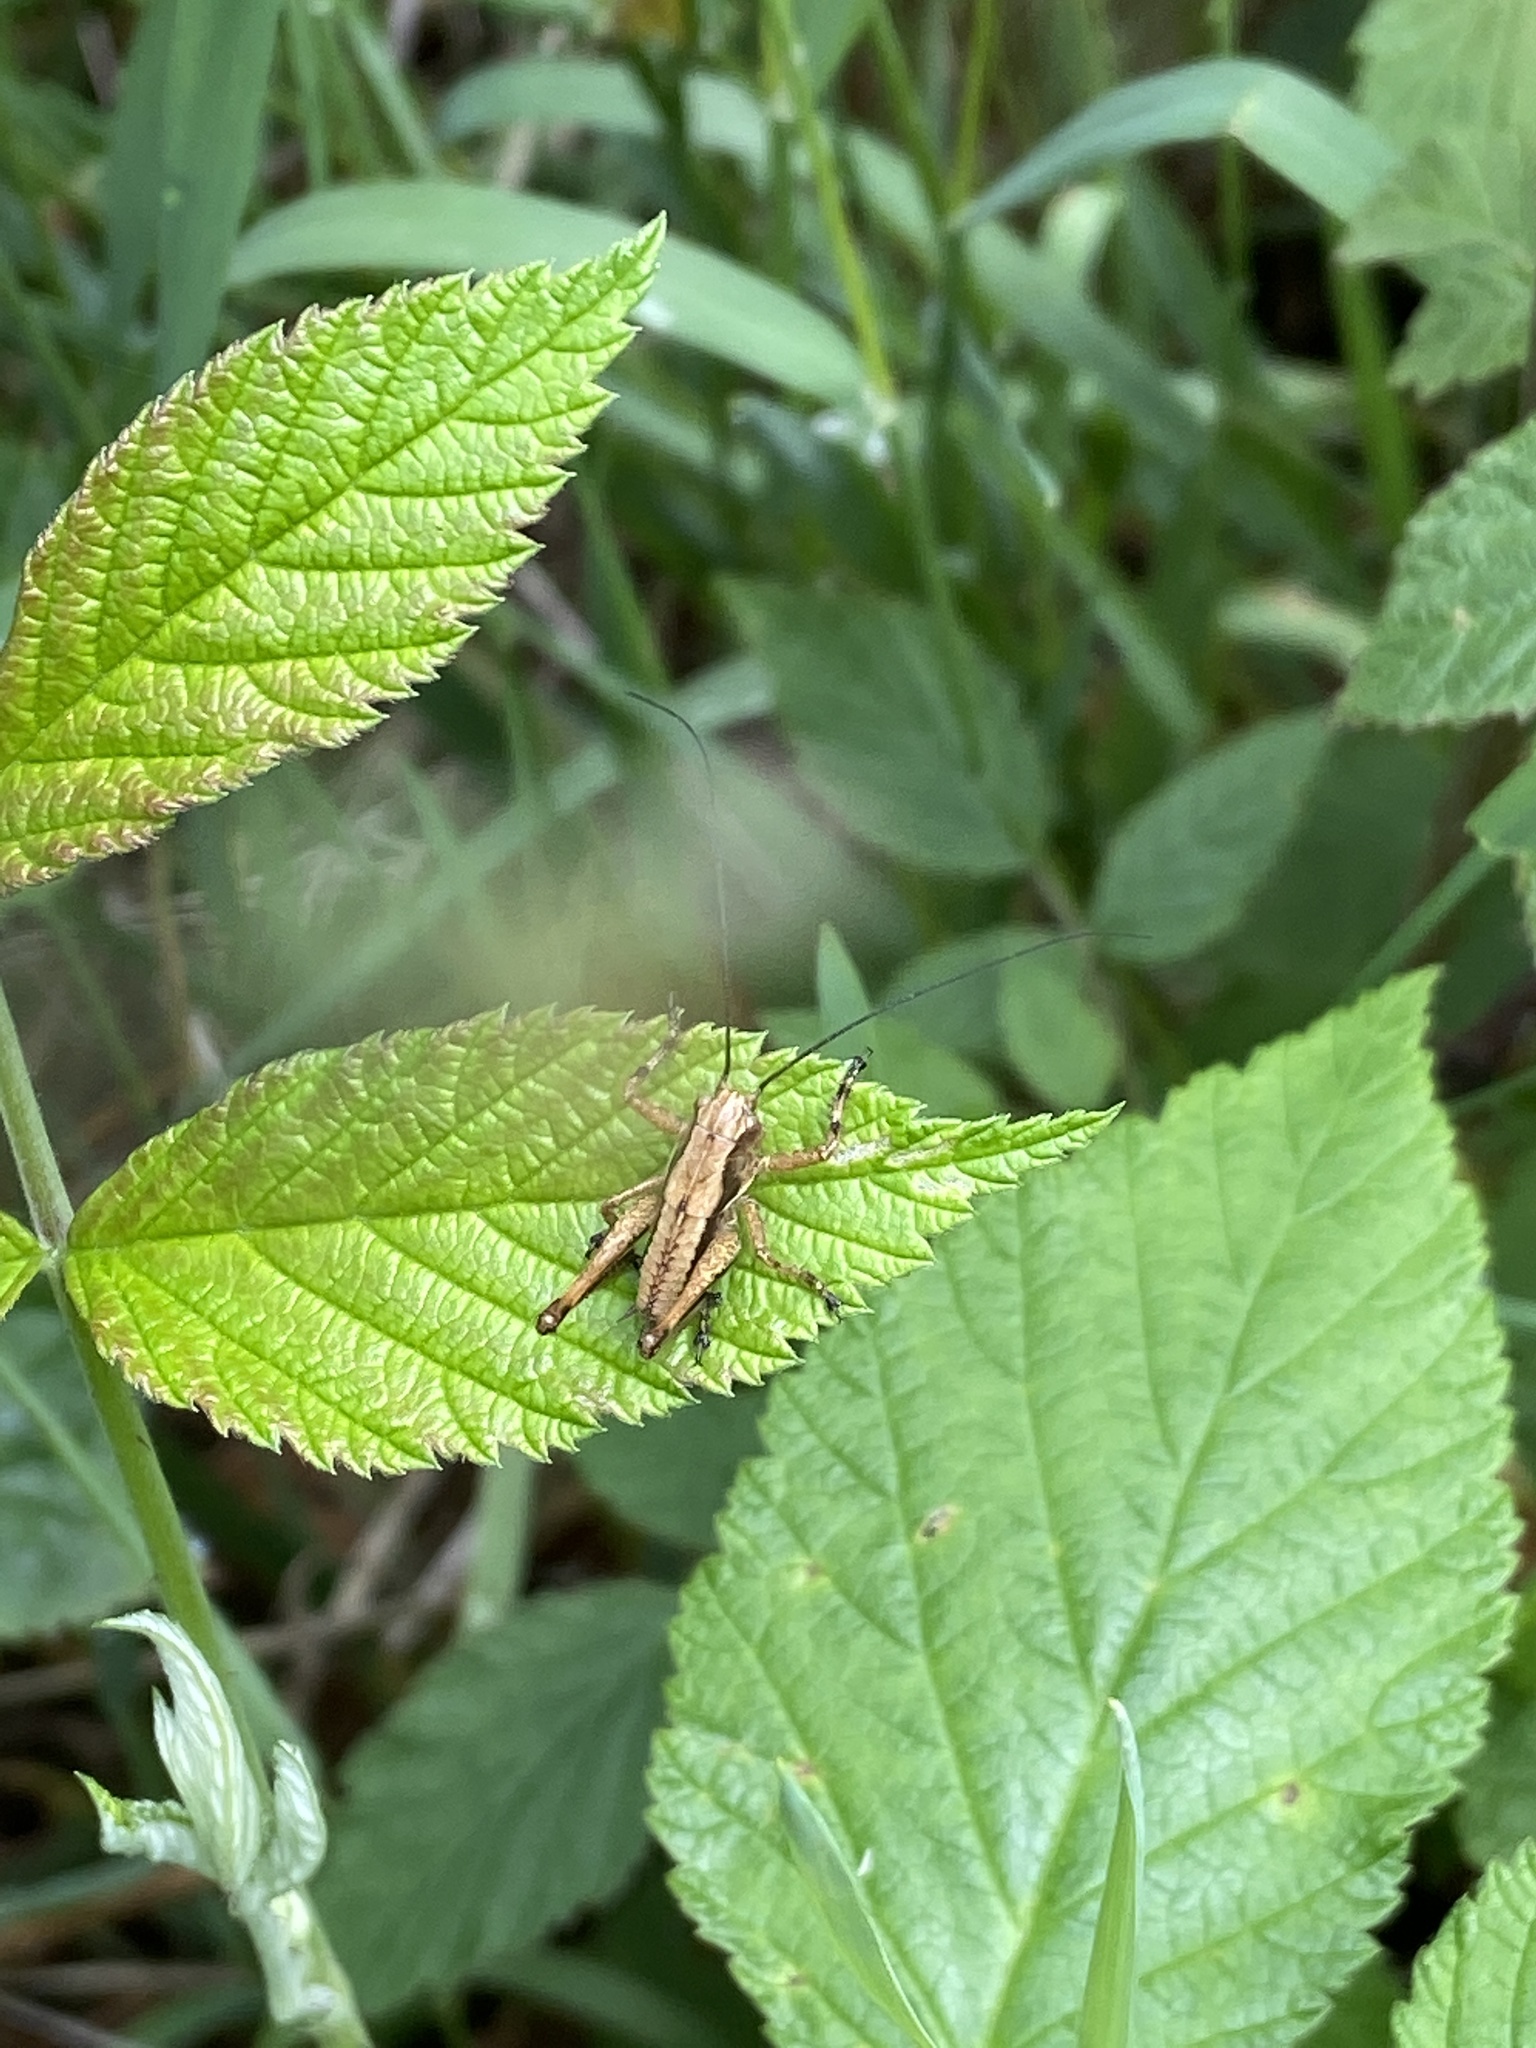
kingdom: Animalia
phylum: Arthropoda
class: Insecta
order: Orthoptera
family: Tettigoniidae
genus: Pholidoptera
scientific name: Pholidoptera griseoaptera
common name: Dark bush-cricket
